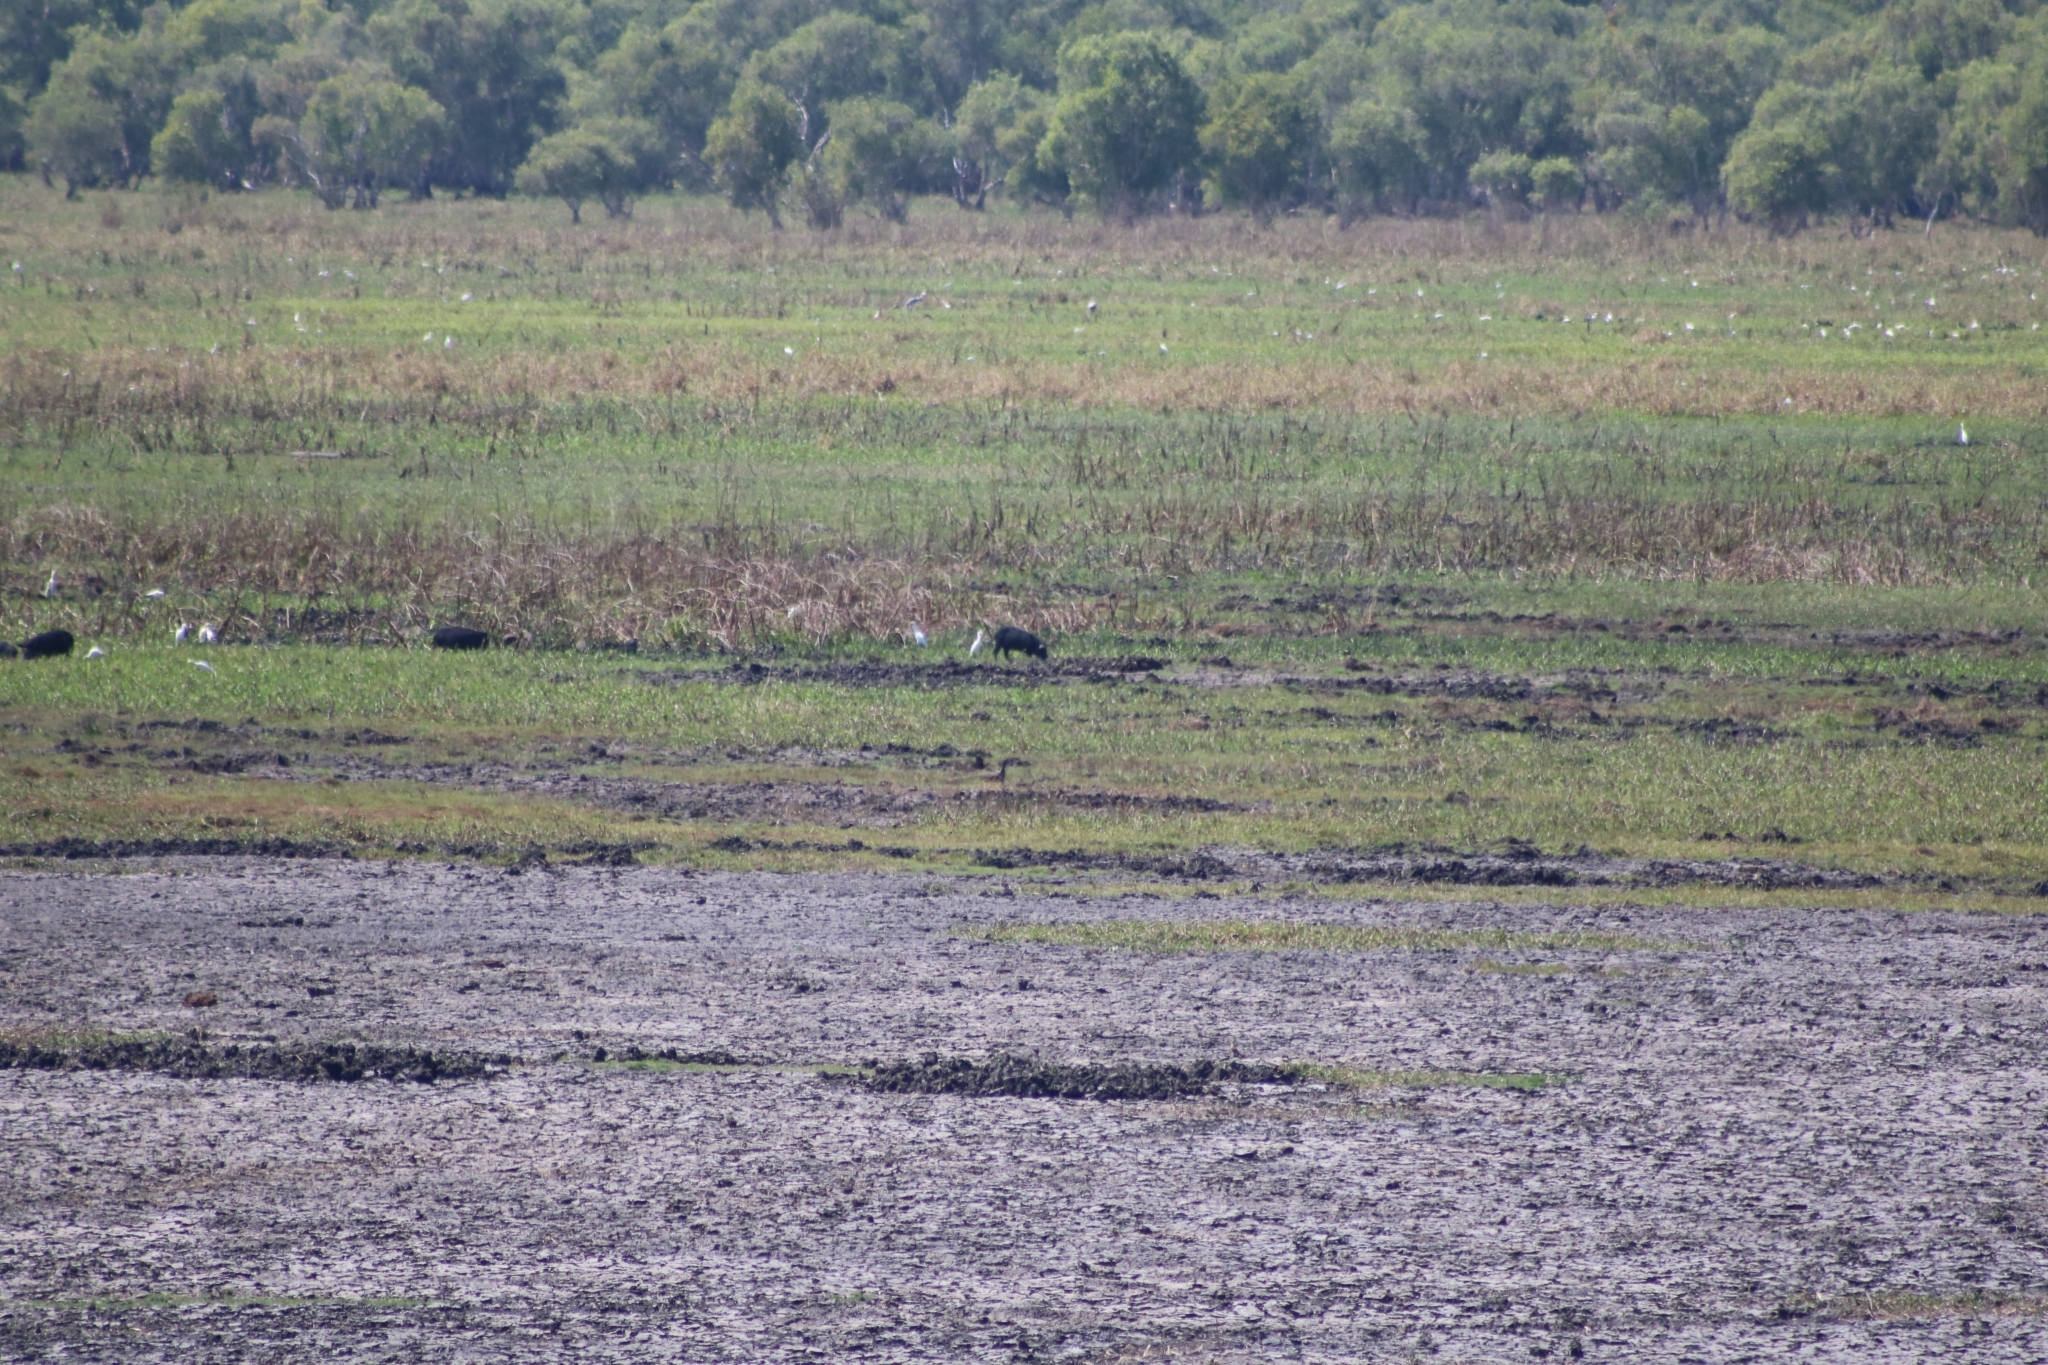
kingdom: Animalia
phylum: Chordata
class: Mammalia
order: Artiodactyla
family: Suidae
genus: Sus
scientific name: Sus scrofa
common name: Wild boar
